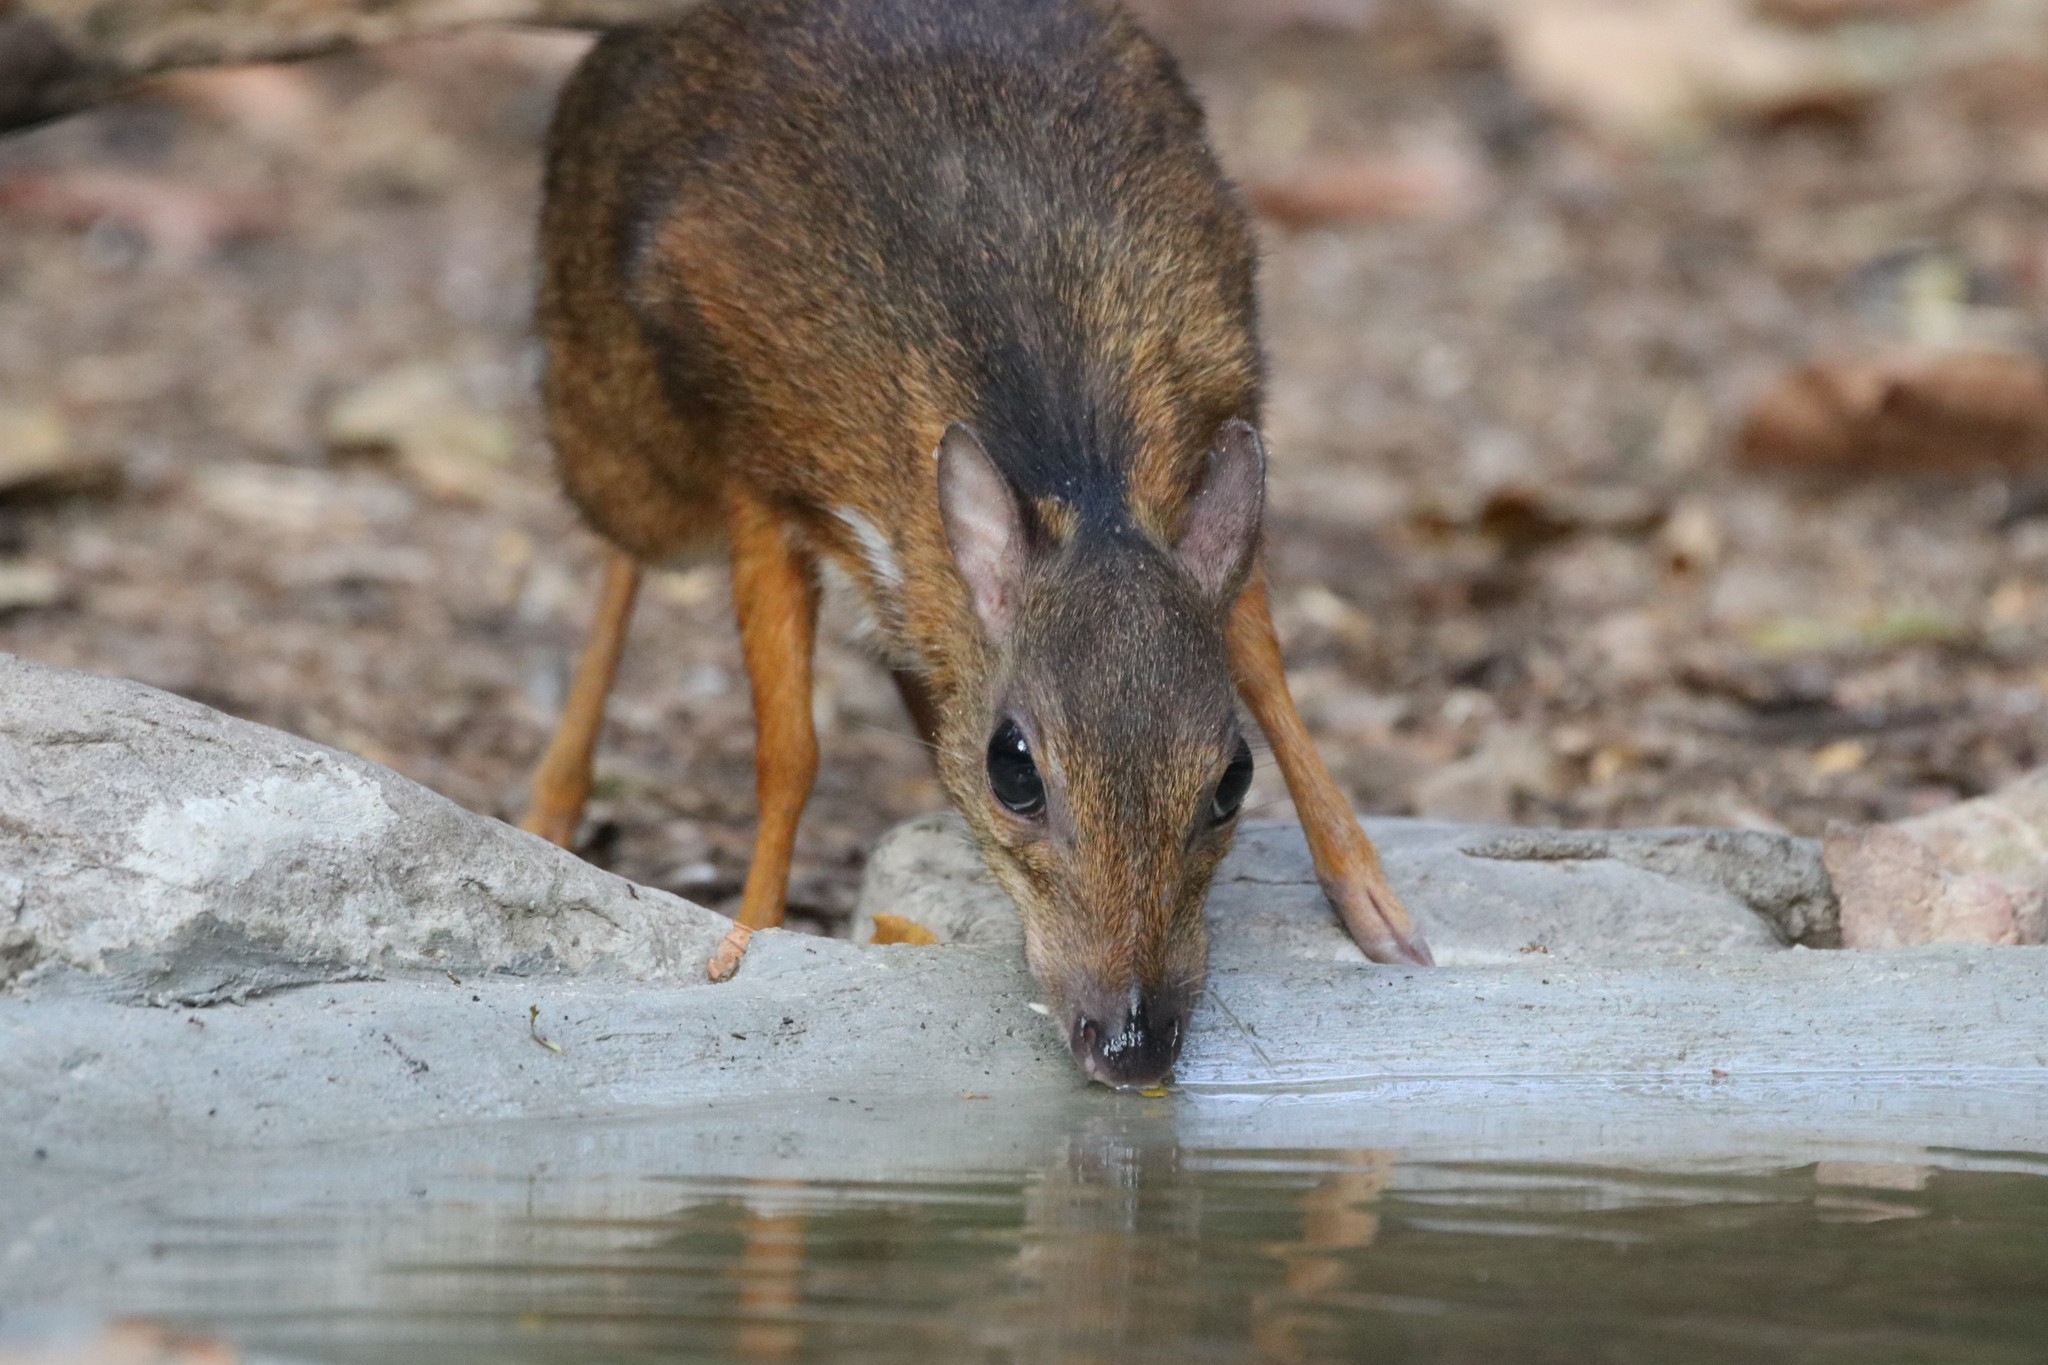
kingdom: Animalia
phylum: Chordata
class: Mammalia
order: Artiodactyla
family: Tragulidae
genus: Tragulus
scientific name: Tragulus kanchil
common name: Lesser mouse-deer
